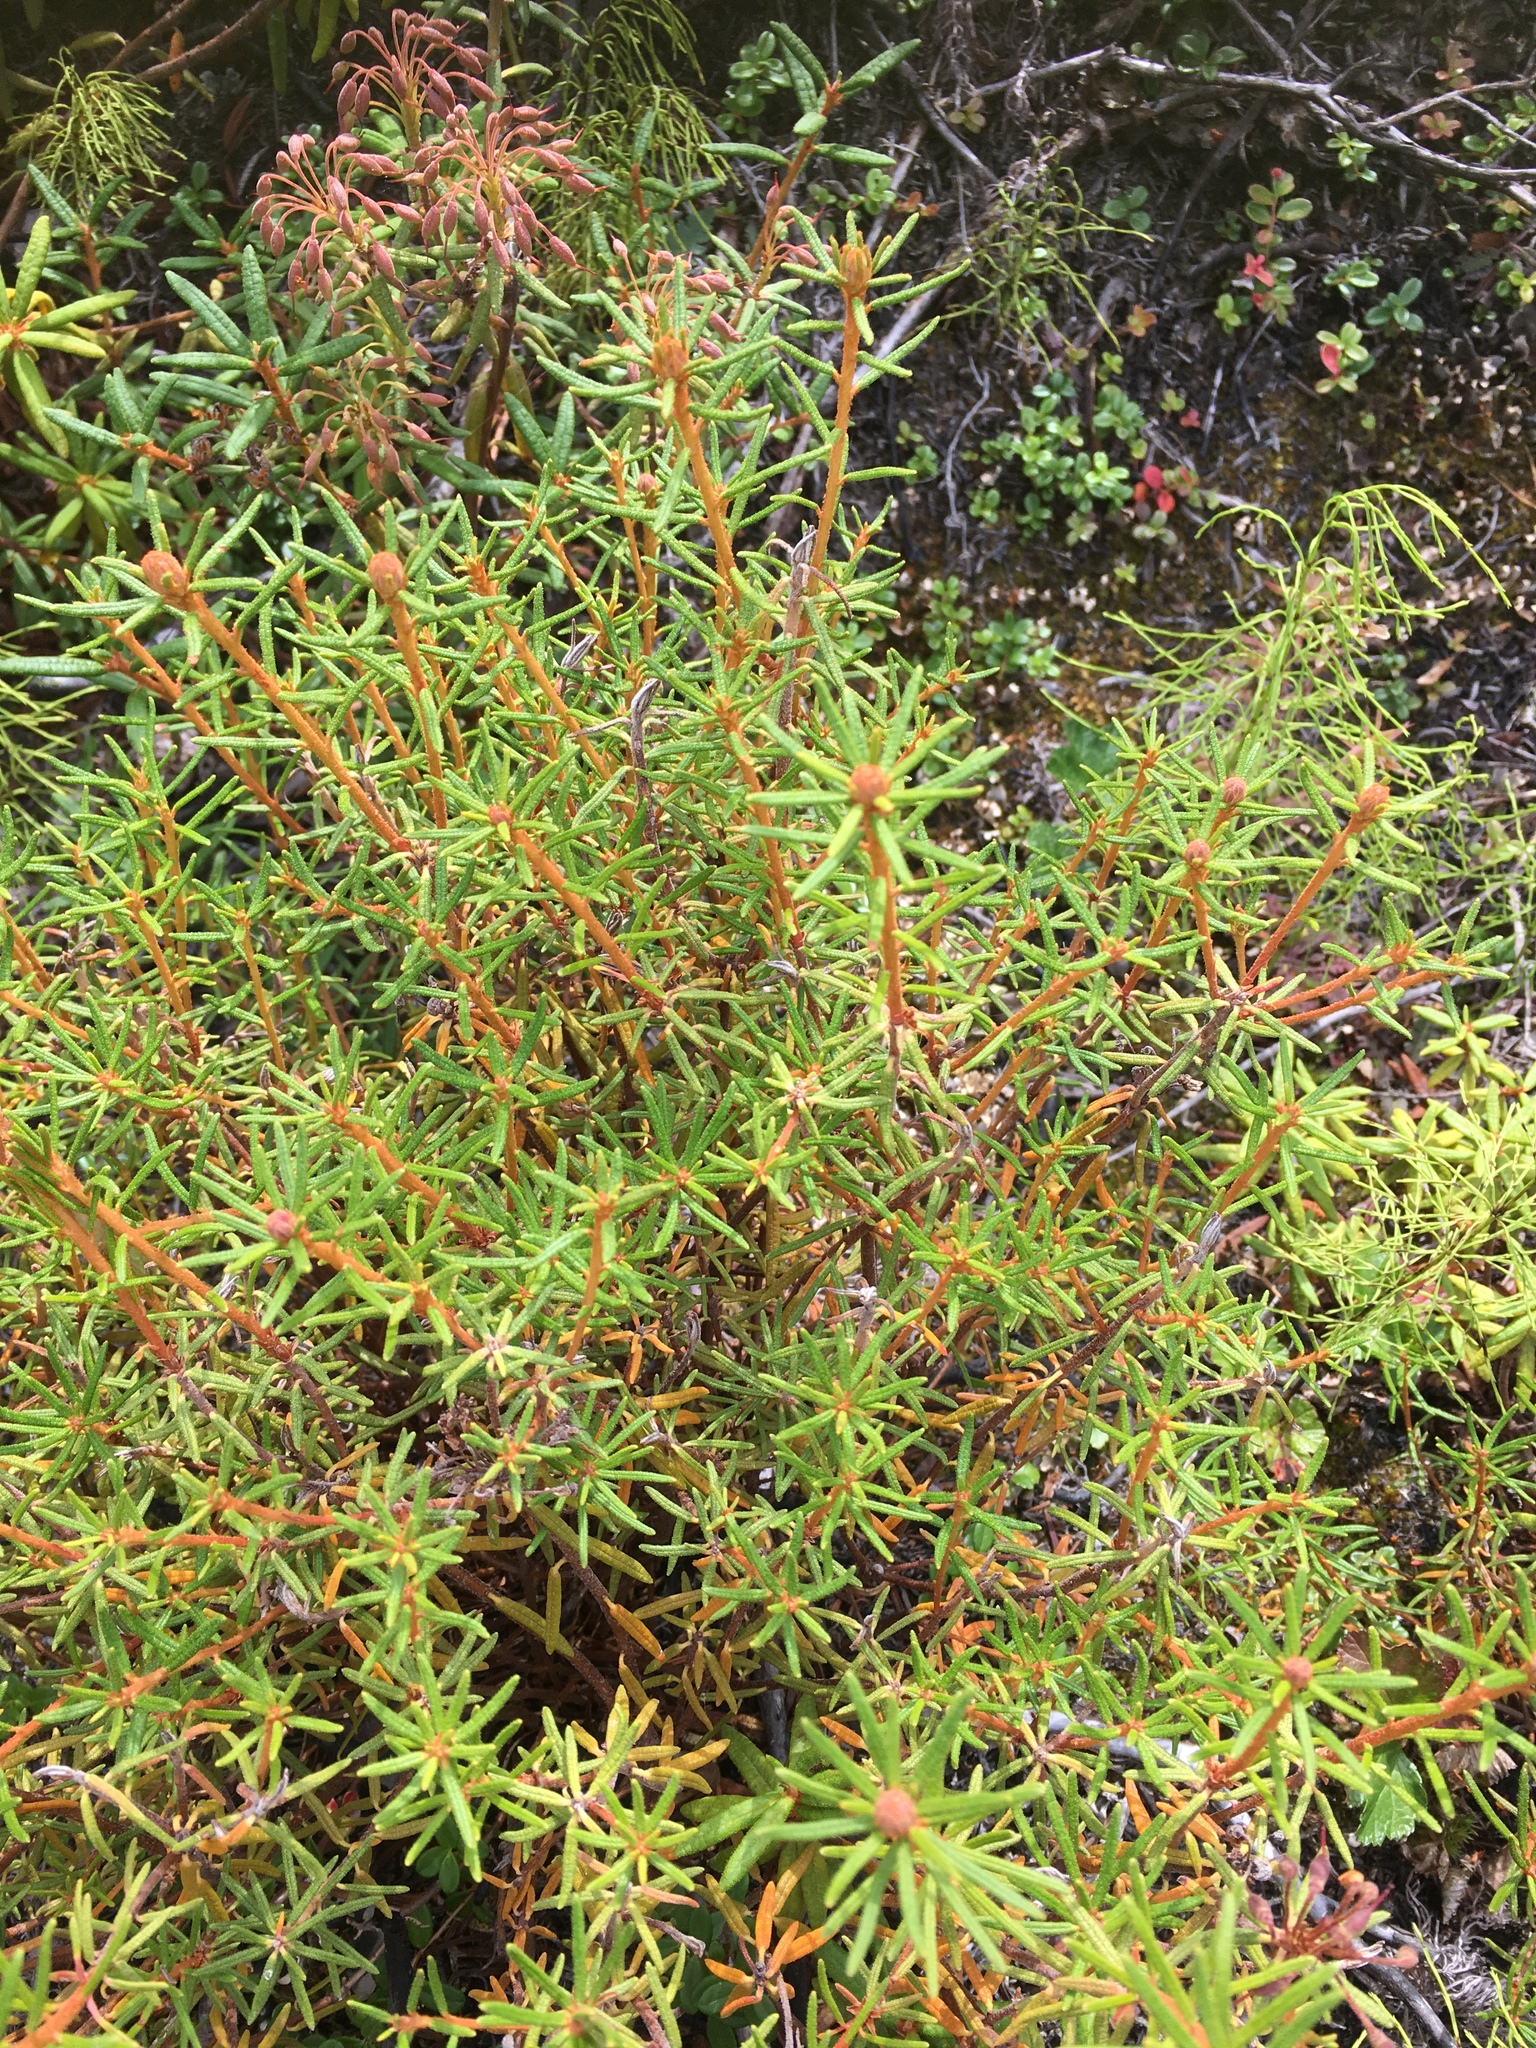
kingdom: Plantae
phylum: Tracheophyta
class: Magnoliopsida
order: Ericales
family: Ericaceae
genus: Rhododendron
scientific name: Rhododendron tomentosum
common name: Marsh labrador tea
